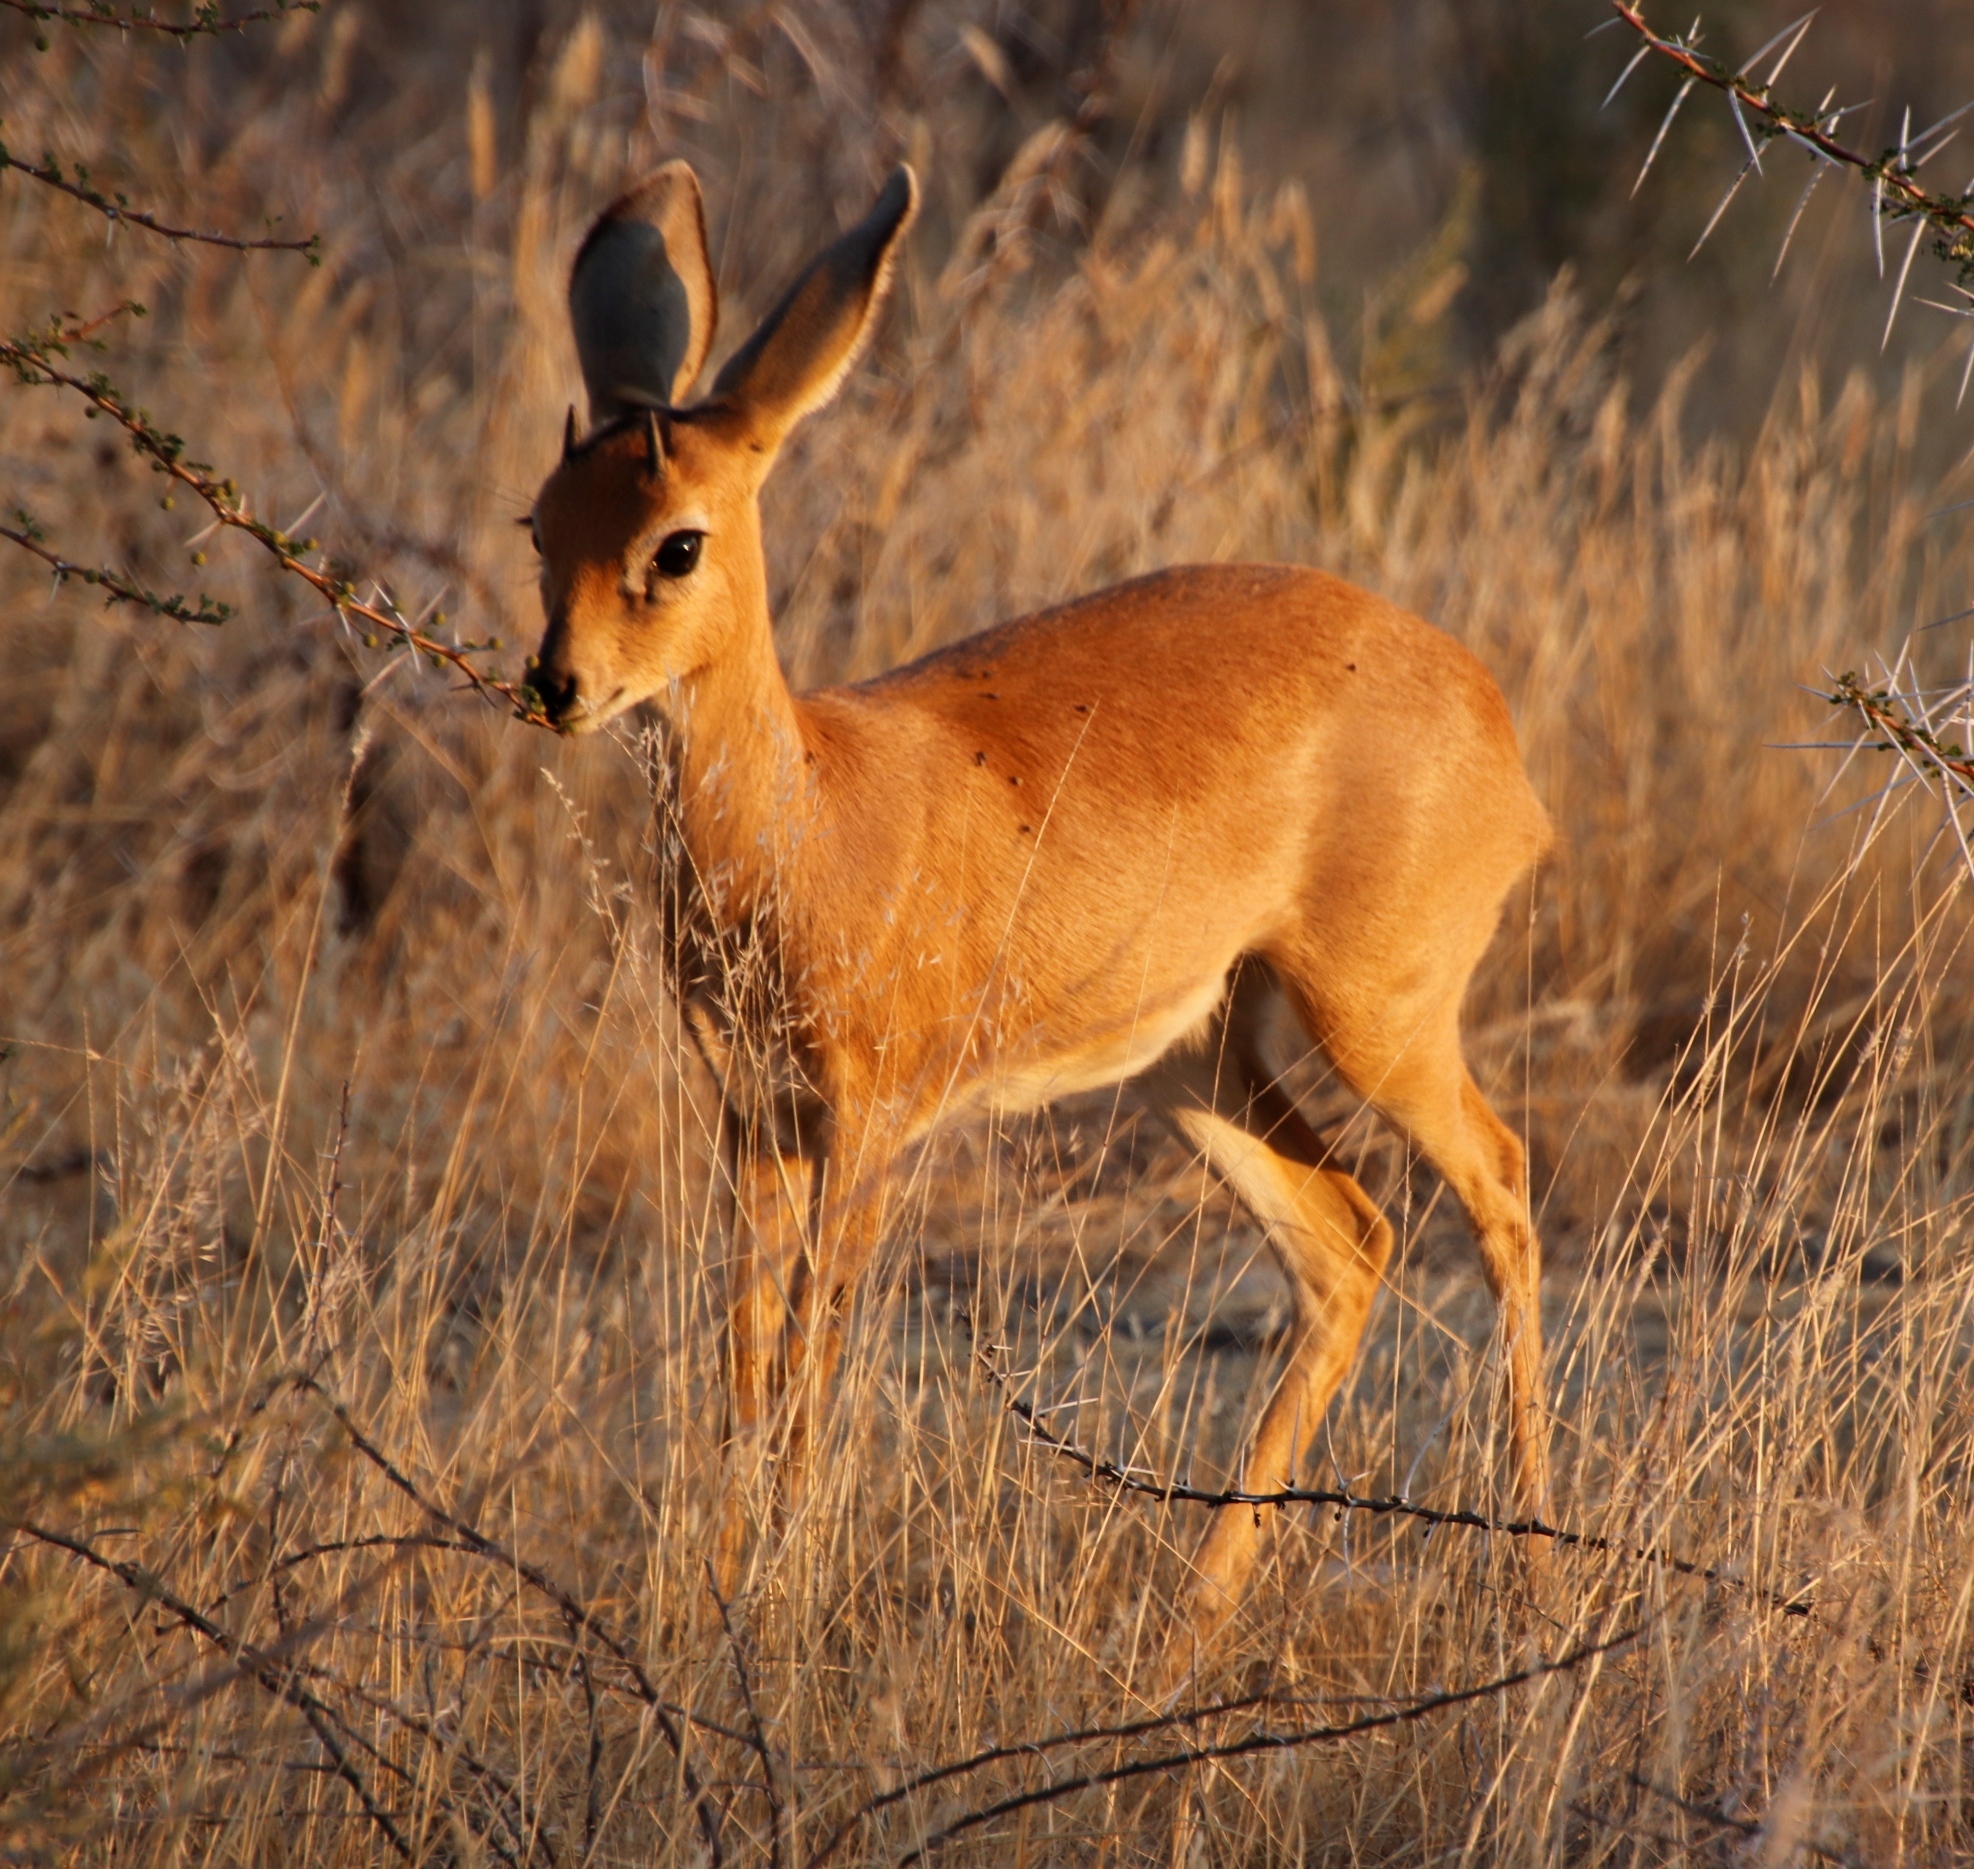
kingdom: Animalia
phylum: Chordata
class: Mammalia
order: Artiodactyla
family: Bovidae
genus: Raphicerus
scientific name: Raphicerus campestris
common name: Steenbok
